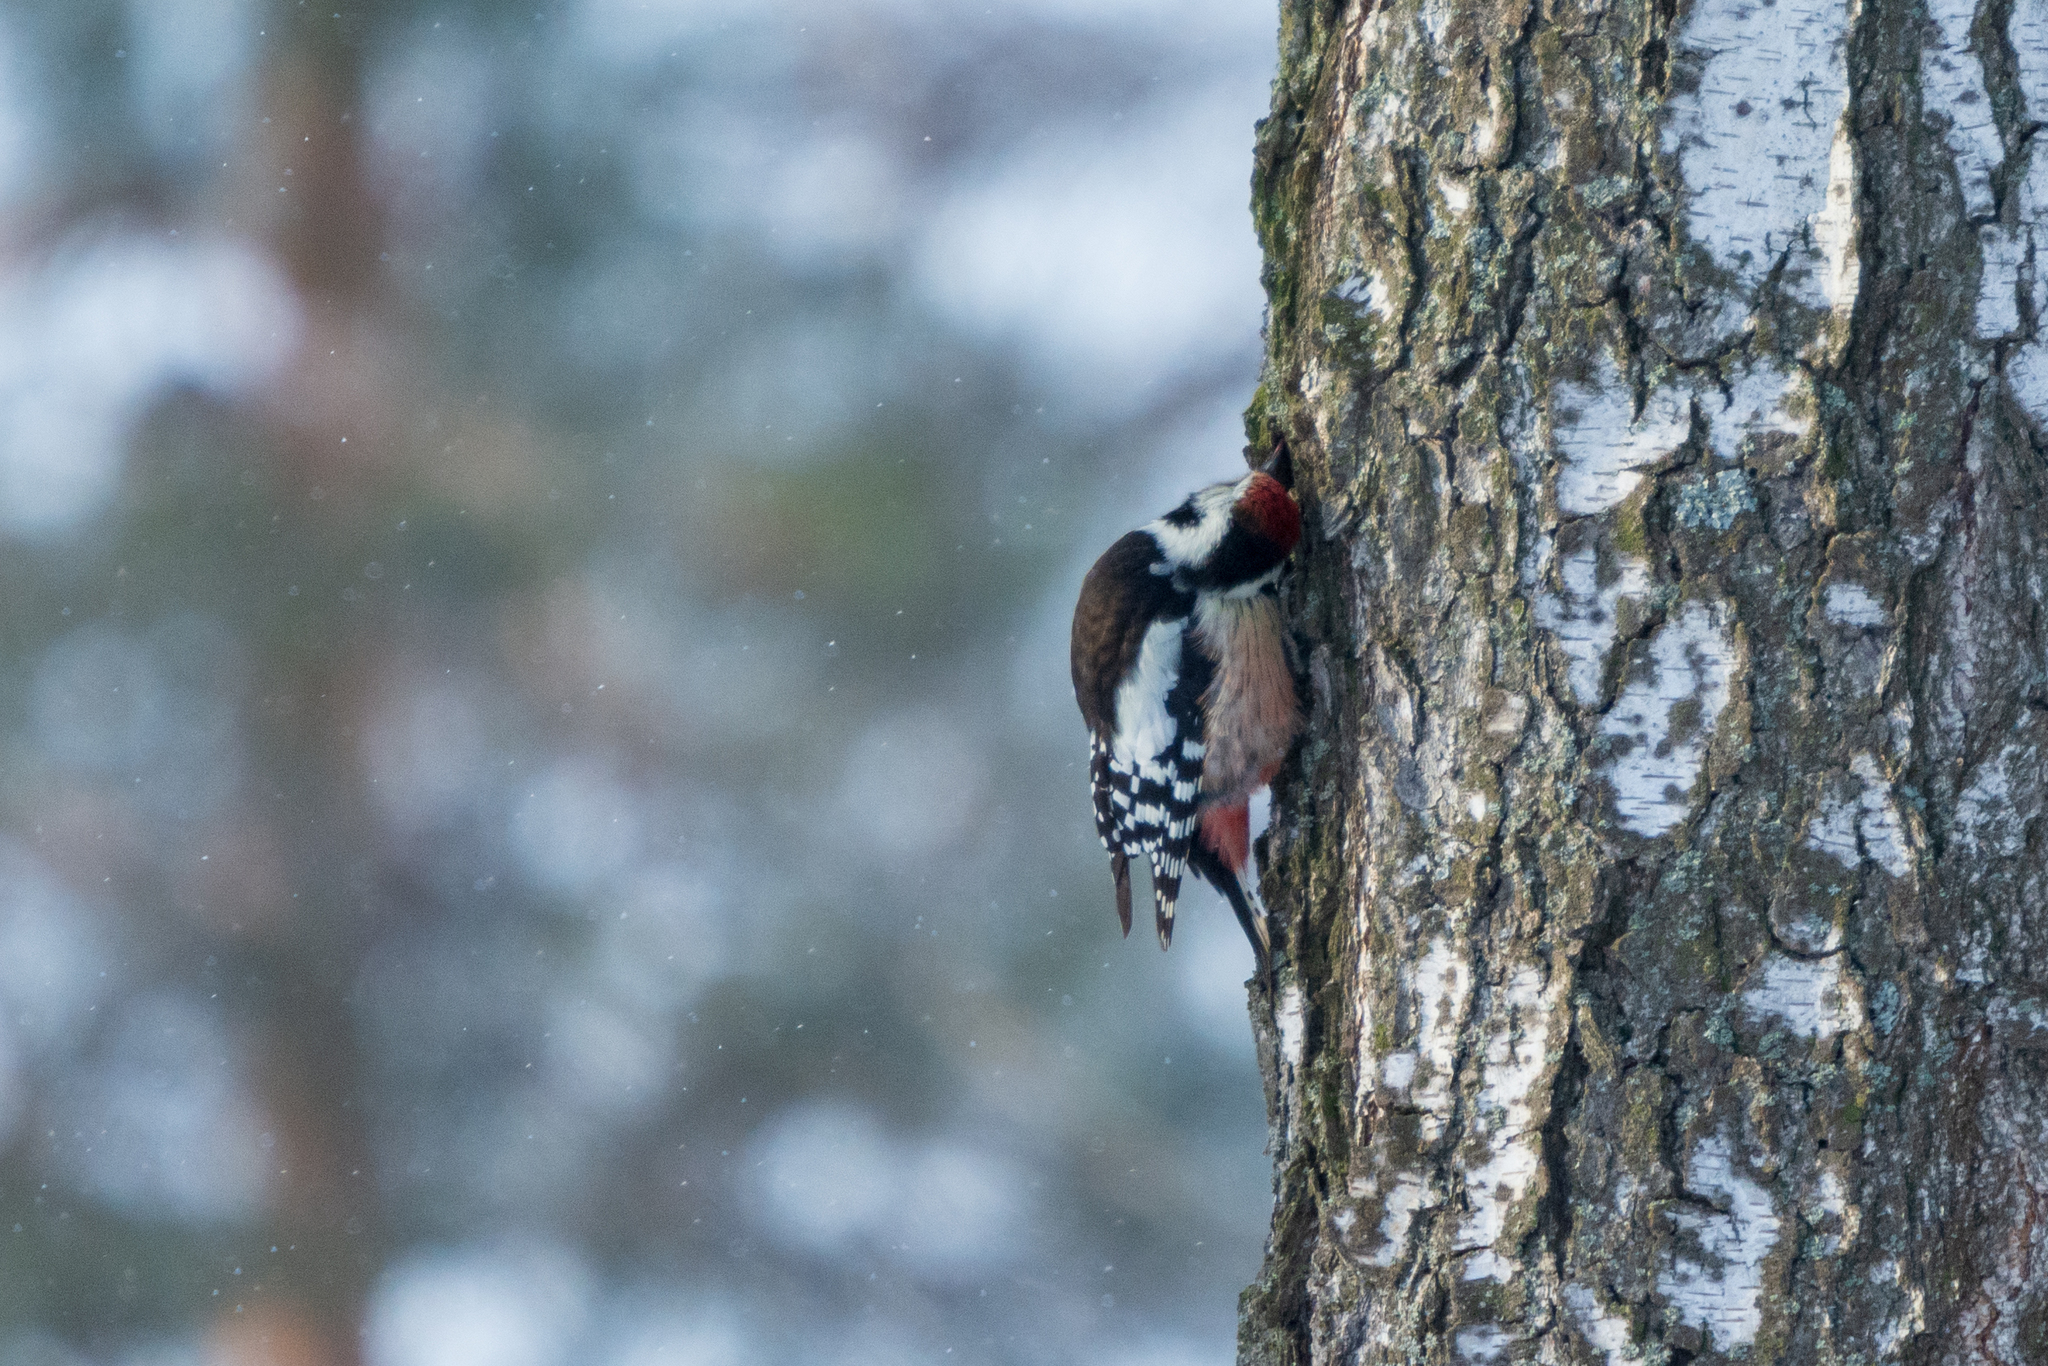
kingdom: Animalia
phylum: Chordata
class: Aves
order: Piciformes
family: Picidae
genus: Dendrocoptes
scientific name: Dendrocoptes medius
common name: Middle spotted woodpecker
